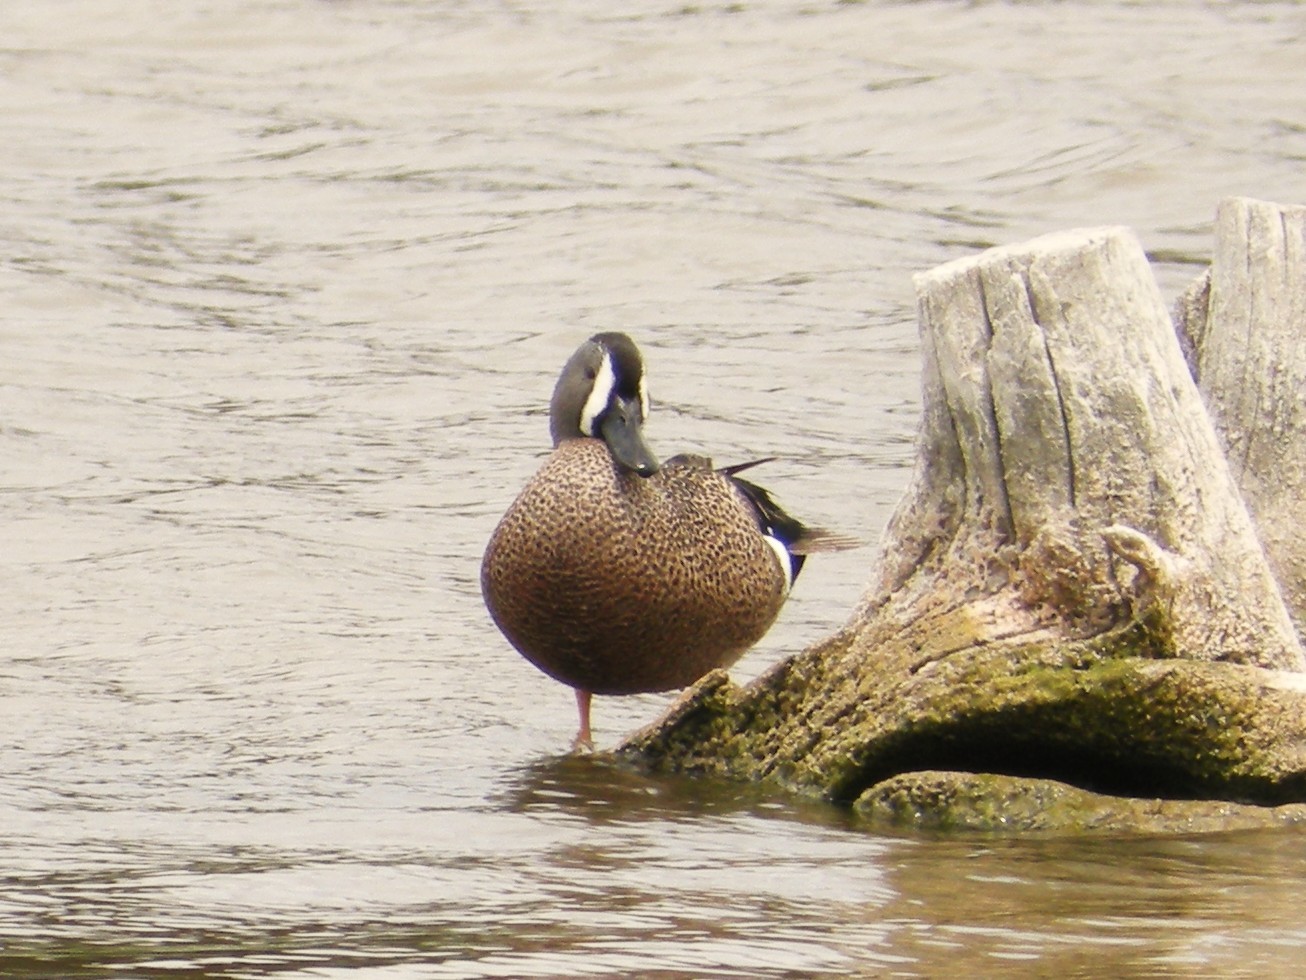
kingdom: Animalia
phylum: Chordata
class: Aves
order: Anseriformes
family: Anatidae
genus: Spatula
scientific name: Spatula discors
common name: Blue-winged teal
